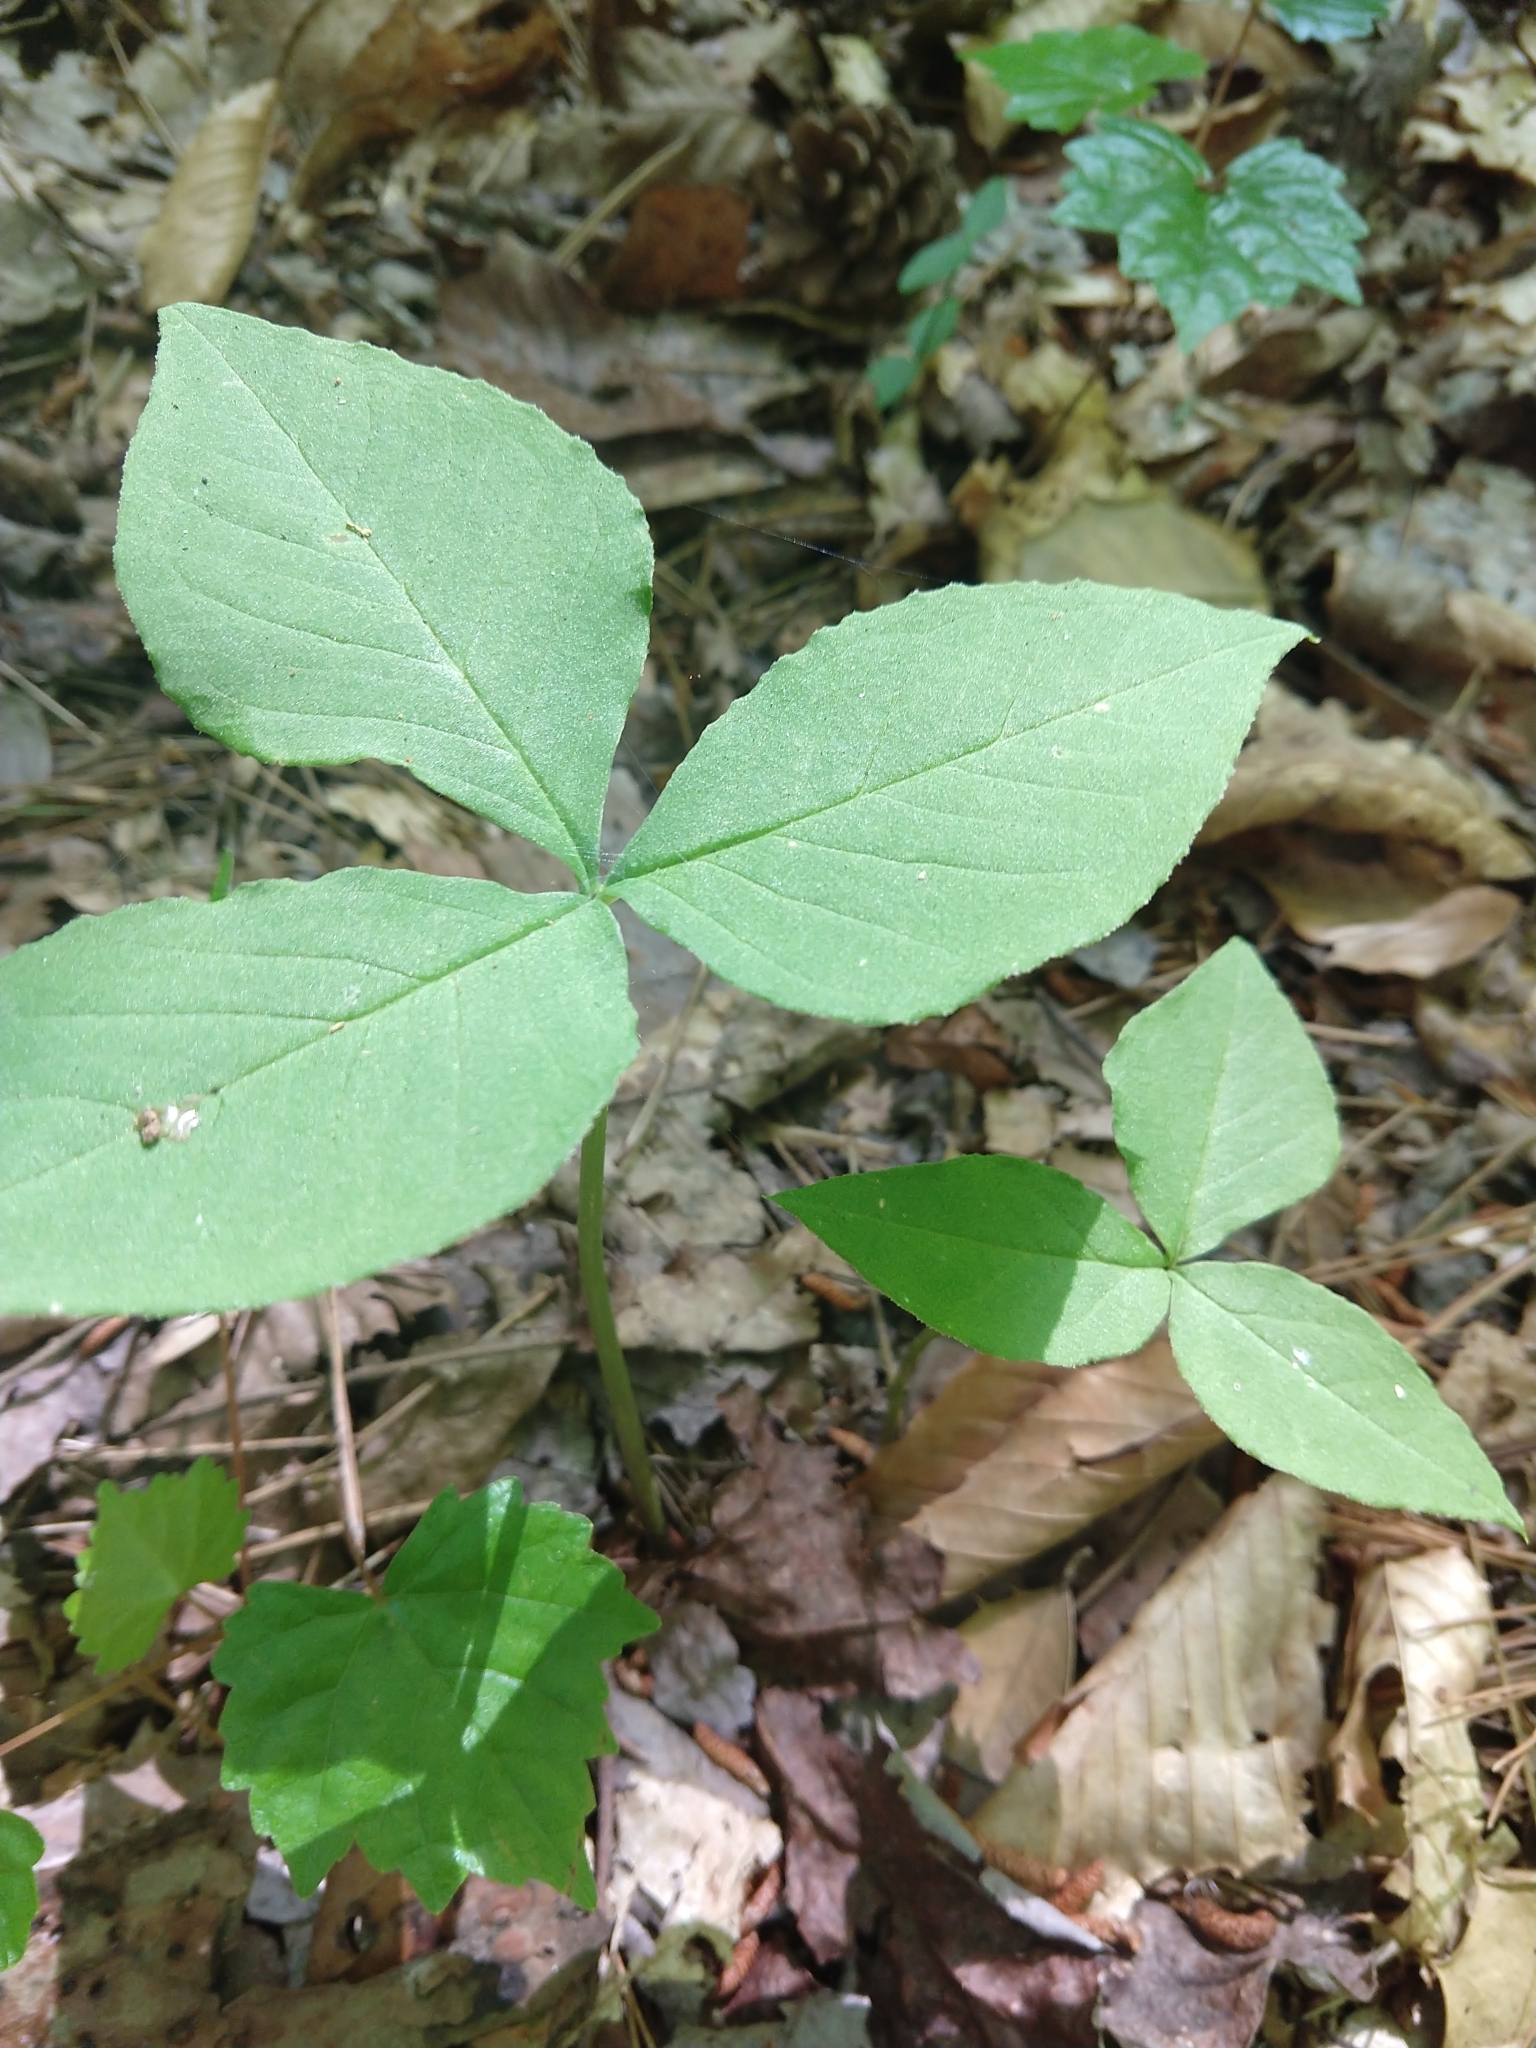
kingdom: Plantae
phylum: Tracheophyta
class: Liliopsida
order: Alismatales
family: Araceae
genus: Arisaema
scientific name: Arisaema triphyllum
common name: Jack-in-the-pulpit
